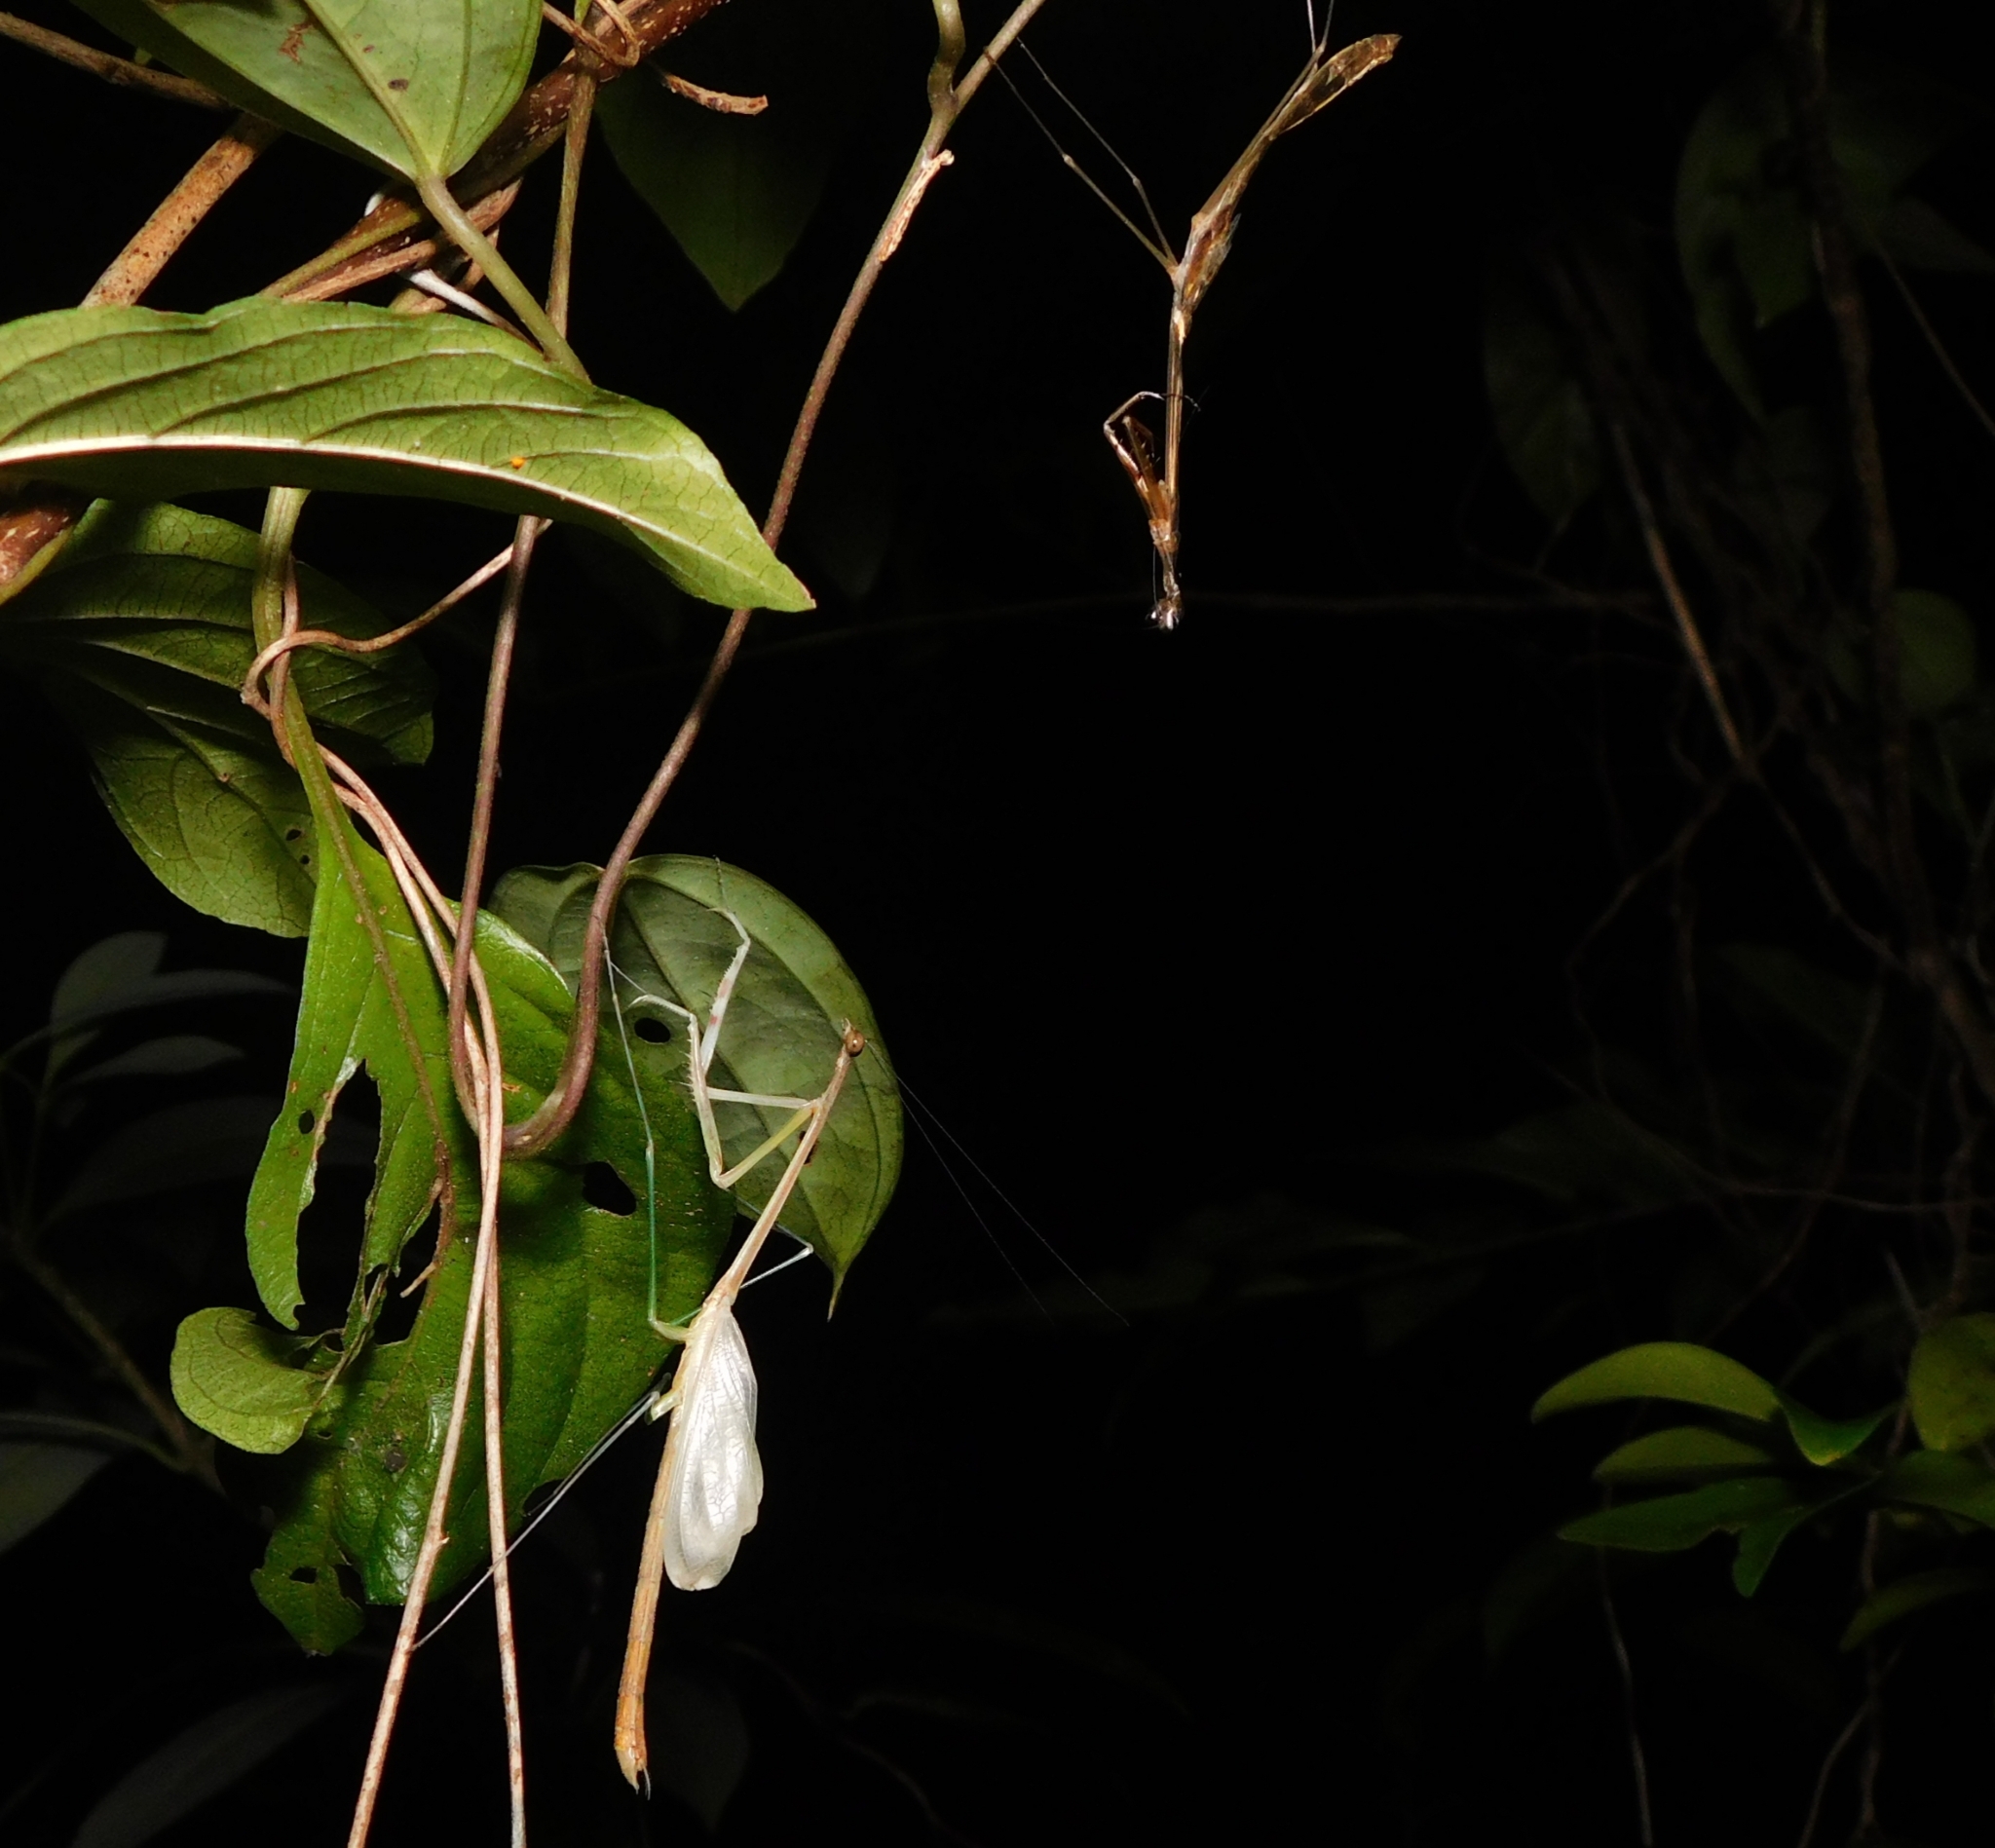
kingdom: Animalia
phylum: Arthropoda
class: Insecta
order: Mantodea
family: Deroplatyidae
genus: Indomenella
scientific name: Indomenella indica
